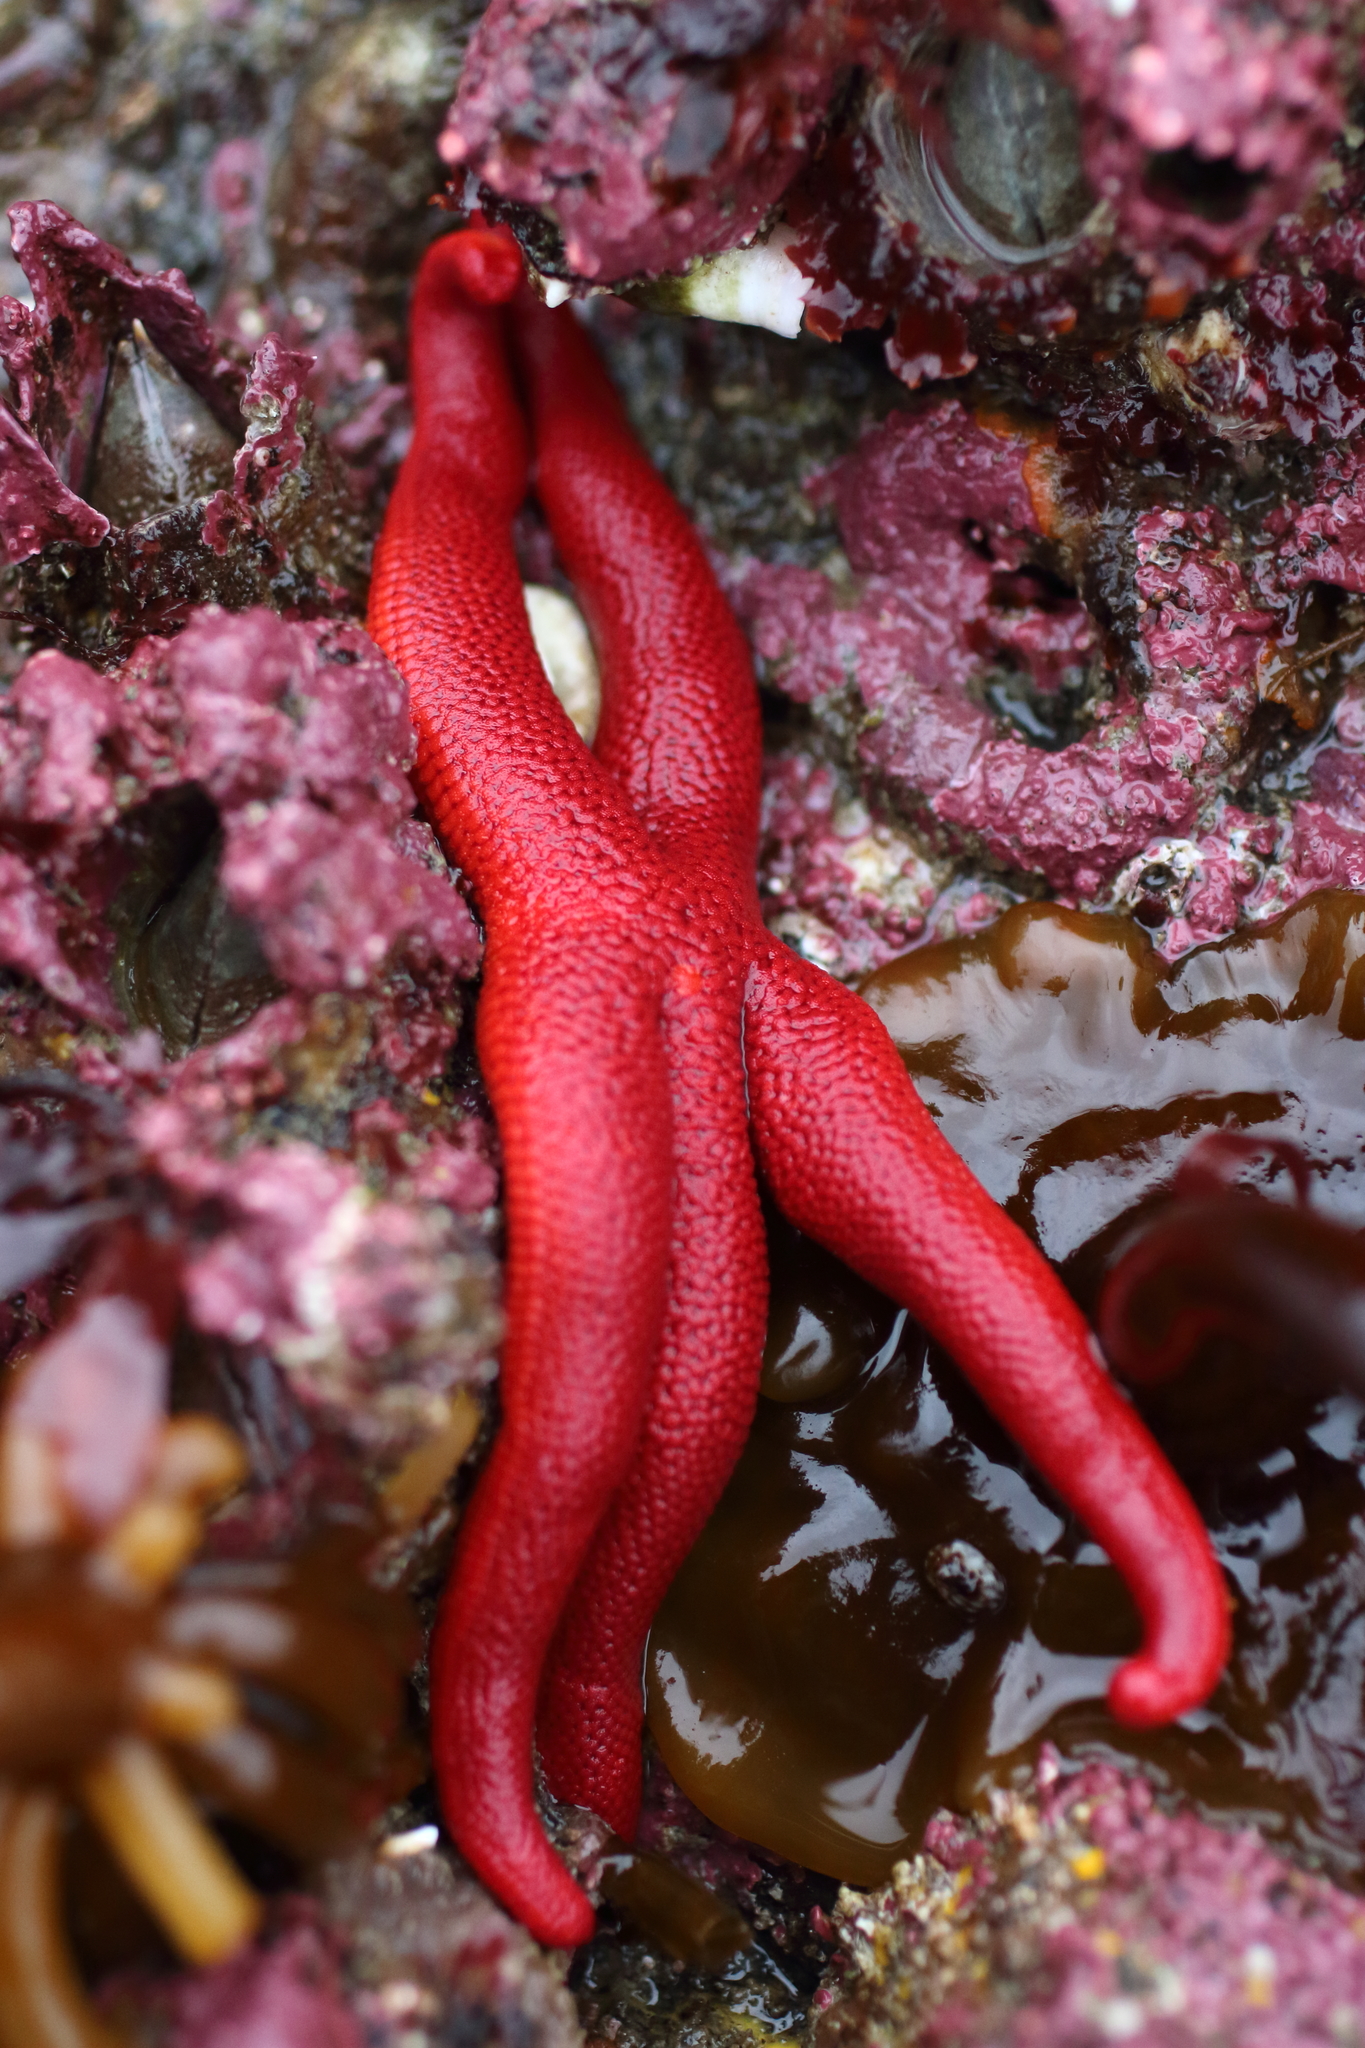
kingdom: Animalia
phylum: Echinodermata
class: Asteroidea
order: Spinulosida
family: Echinasteridae
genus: Henricia
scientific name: Henricia leviuscula
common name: Pacific blood star
